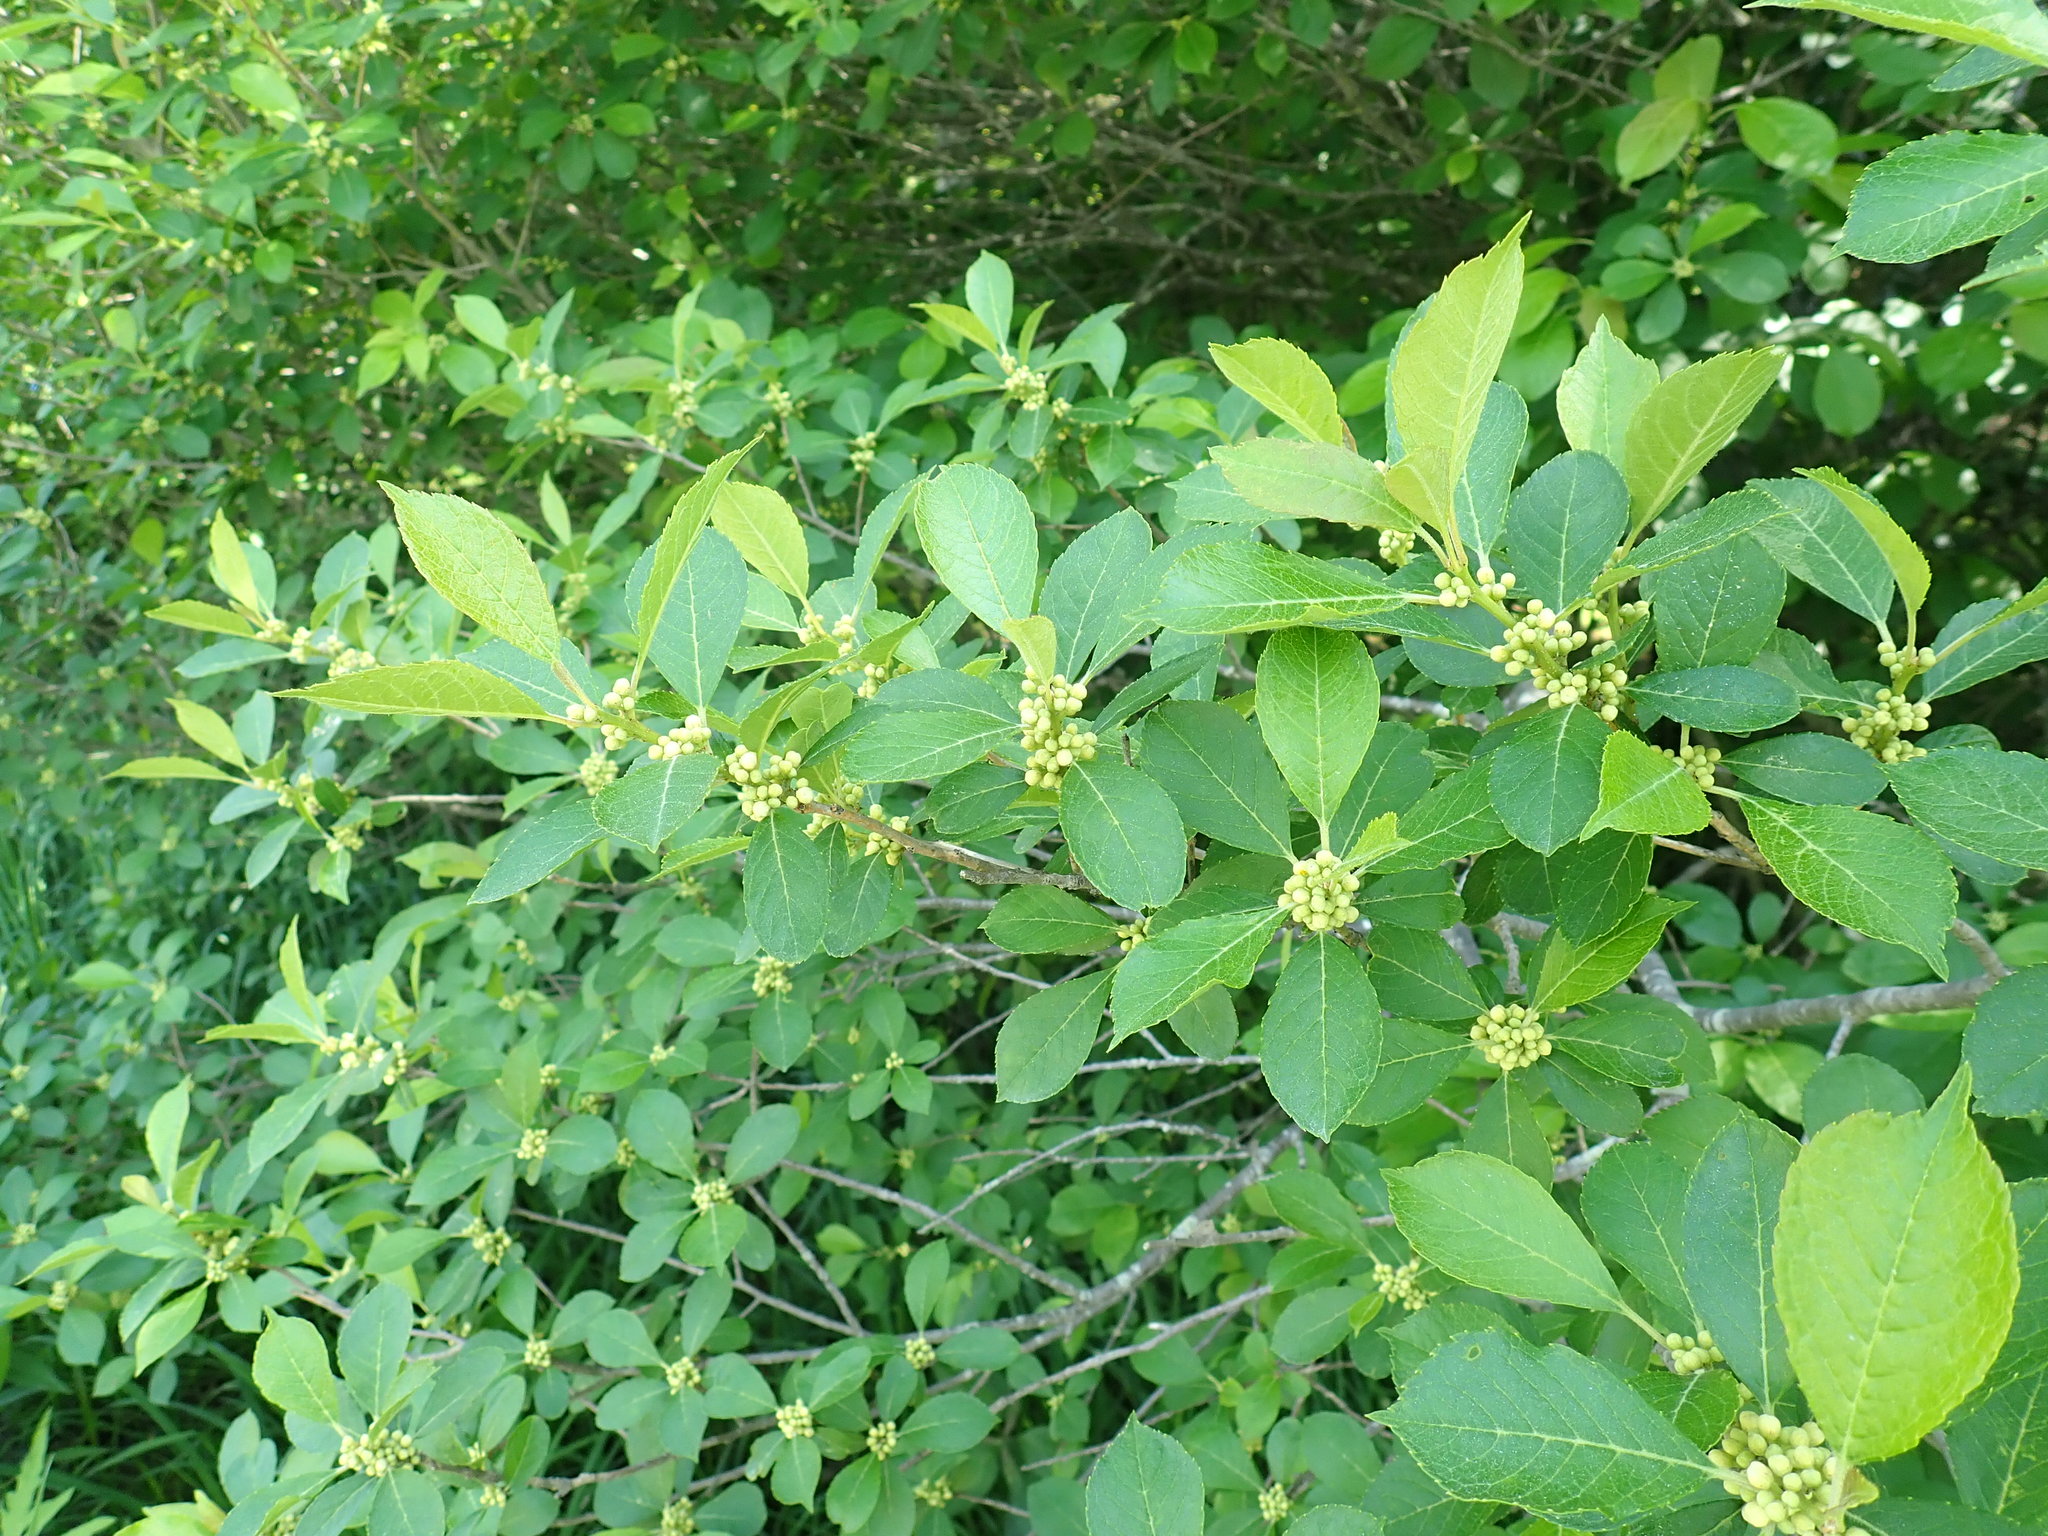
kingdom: Plantae
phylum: Tracheophyta
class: Magnoliopsida
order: Aquifoliales
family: Aquifoliaceae
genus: Ilex
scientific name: Ilex verticillata
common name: Virginia winterberry
